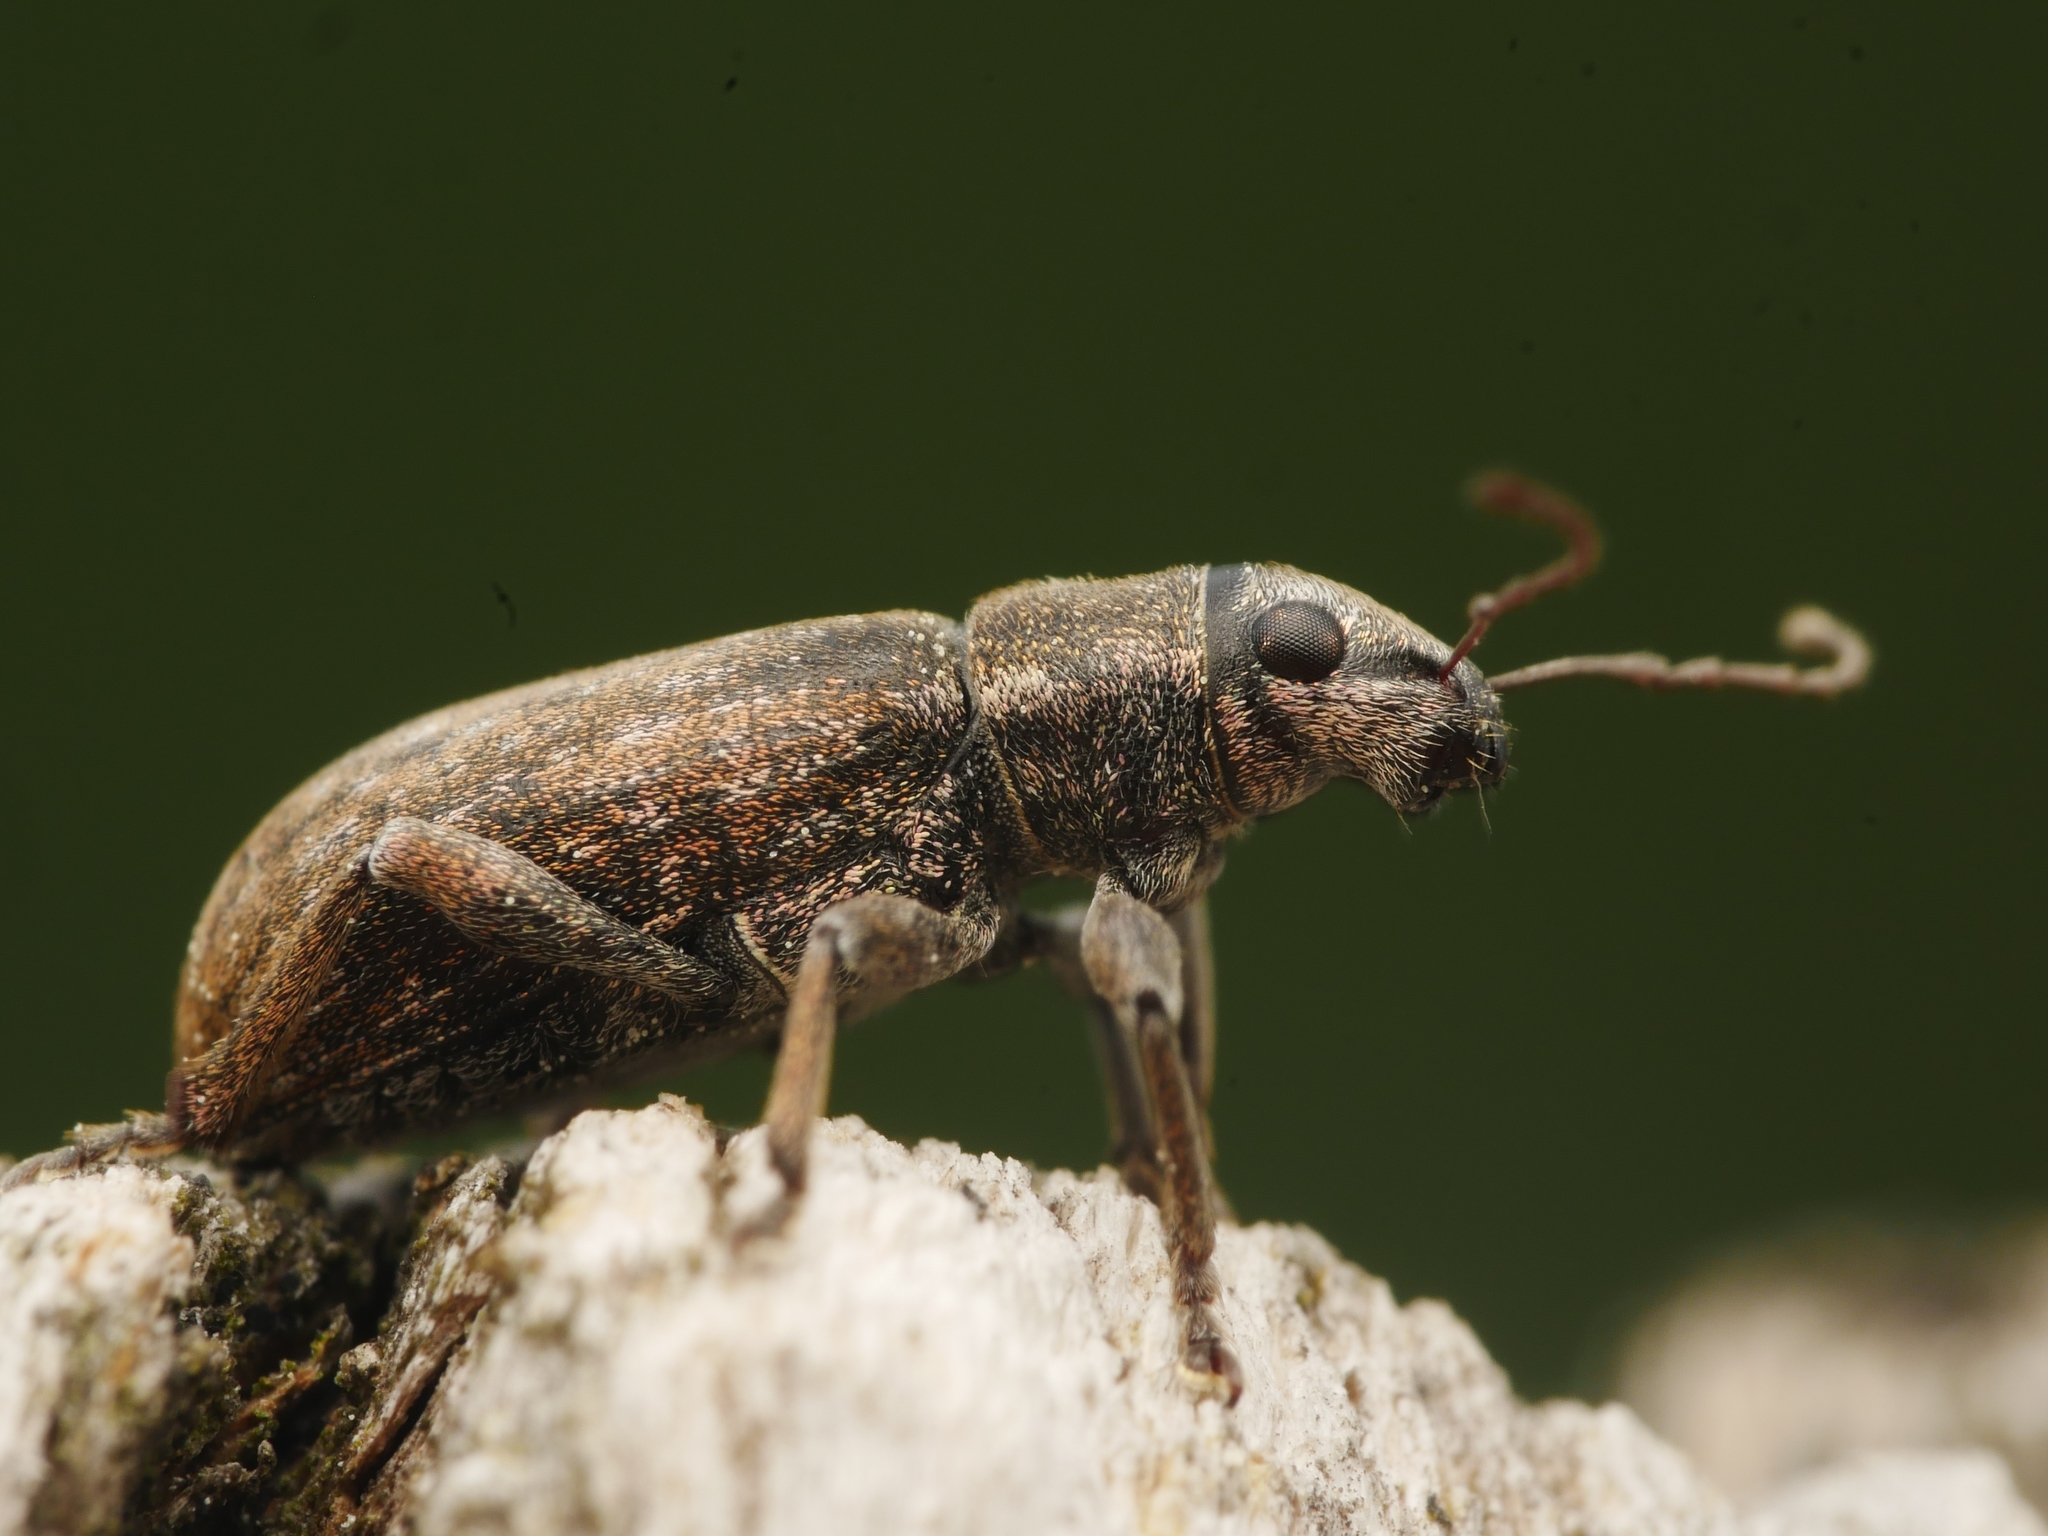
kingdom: Animalia
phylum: Arthropoda
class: Insecta
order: Coleoptera
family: Curculionidae
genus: Brachyderes
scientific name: Brachyderes incanus
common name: Weevil
